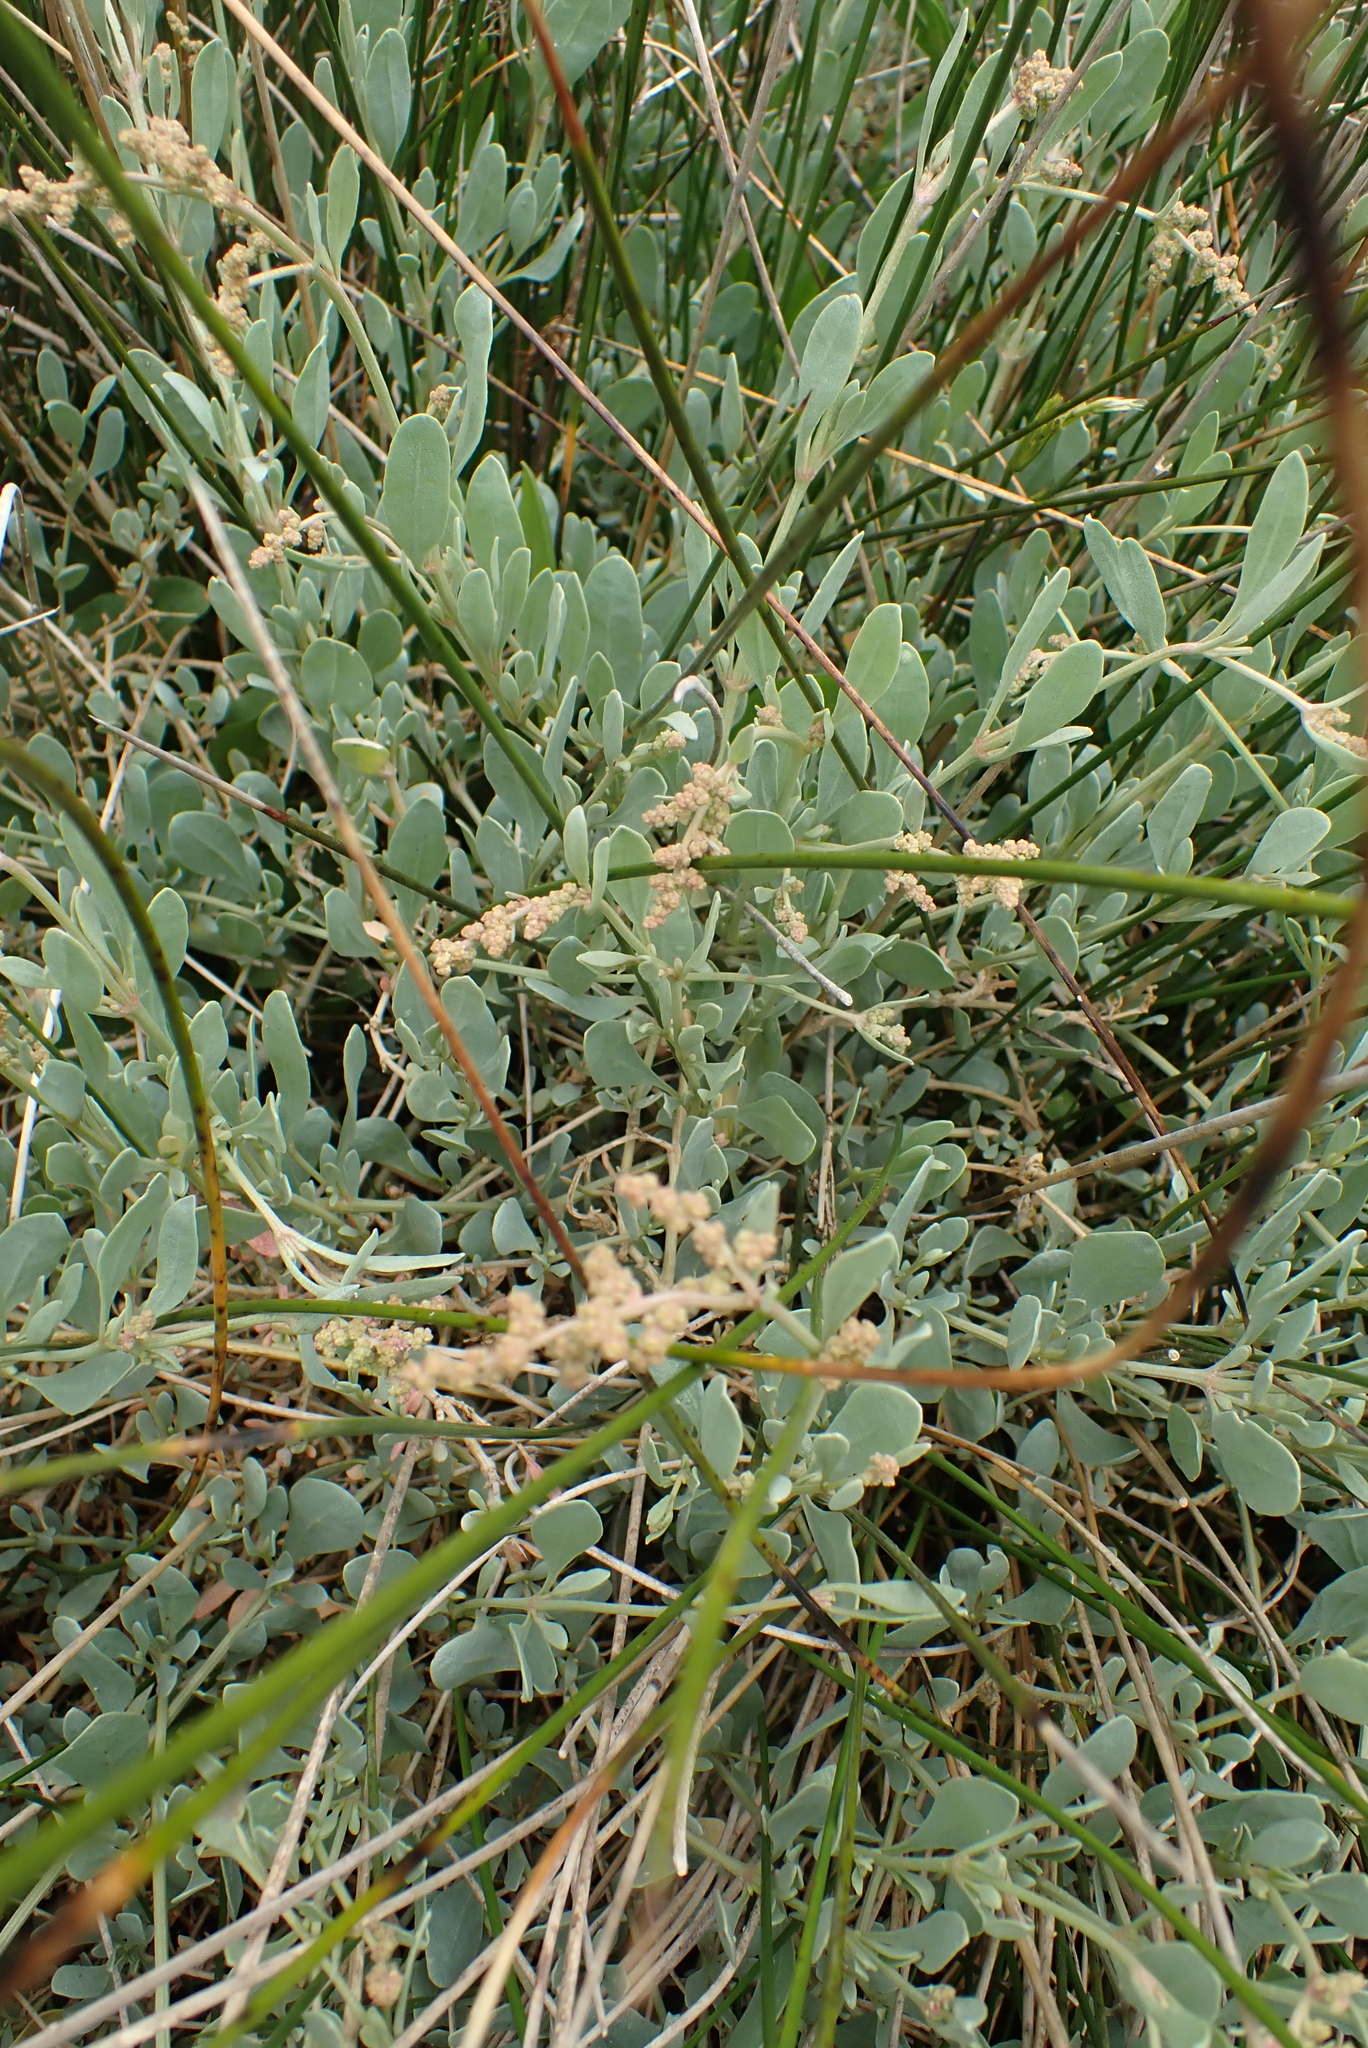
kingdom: Plantae
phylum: Tracheophyta
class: Magnoliopsida
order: Caryophyllales
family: Amaranthaceae
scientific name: Amaranthaceae
